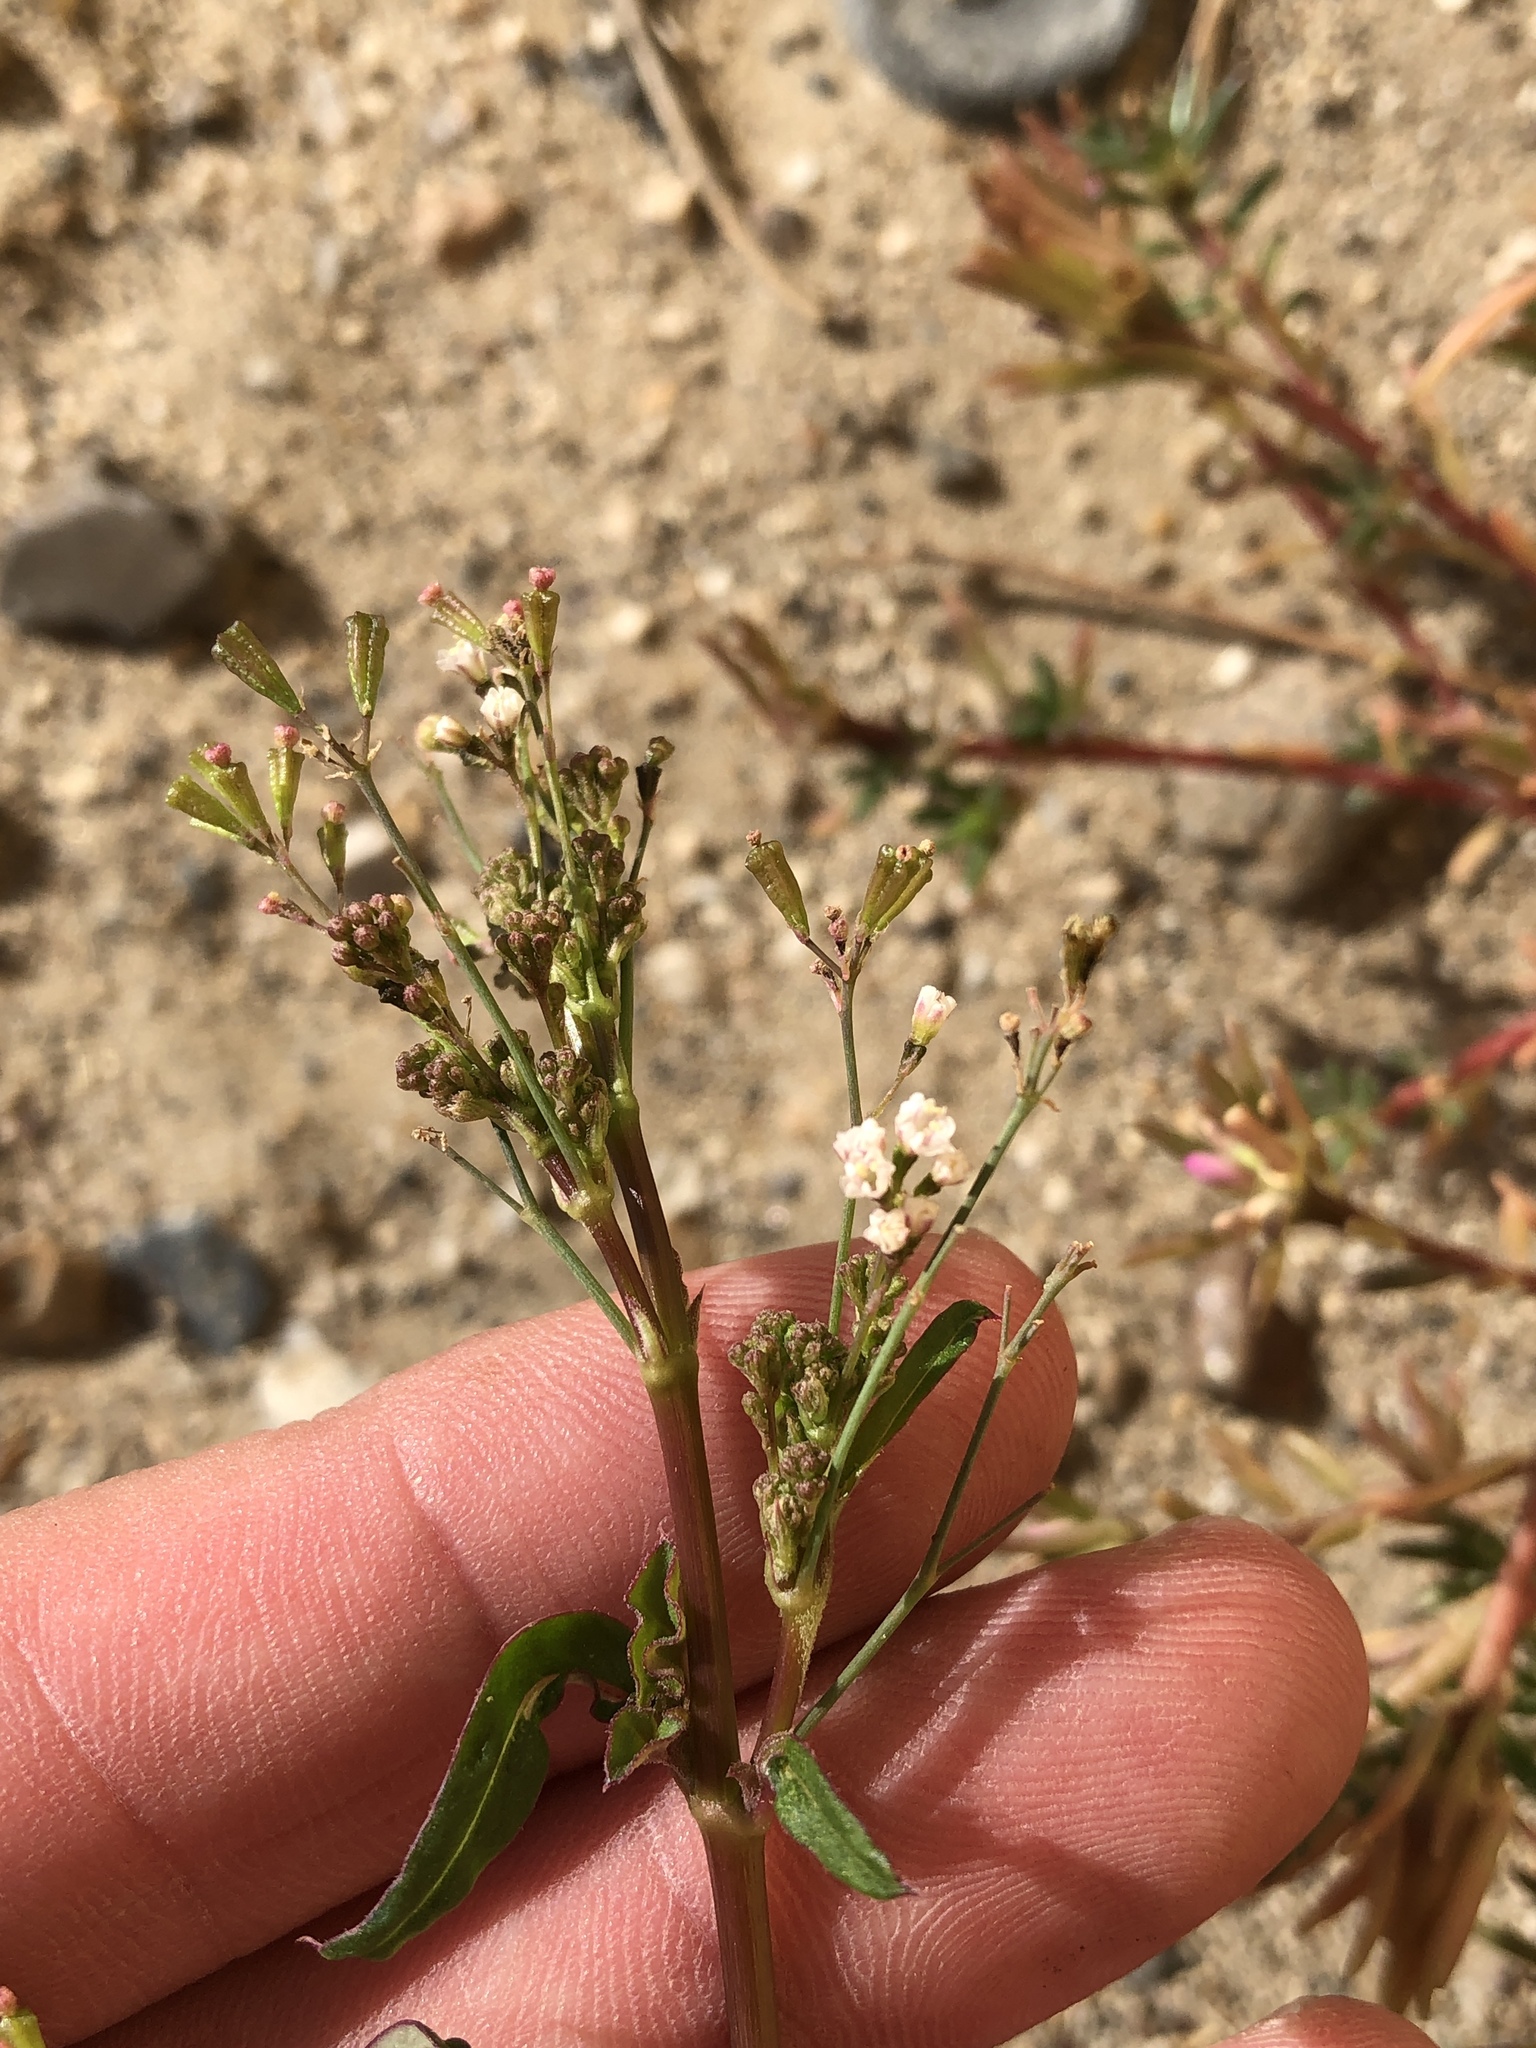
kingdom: Plantae
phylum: Tracheophyta
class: Magnoliopsida
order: Caryophyllales
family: Nyctaginaceae
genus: Boerhavia
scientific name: Boerhavia erecta
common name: Erect spiderling
